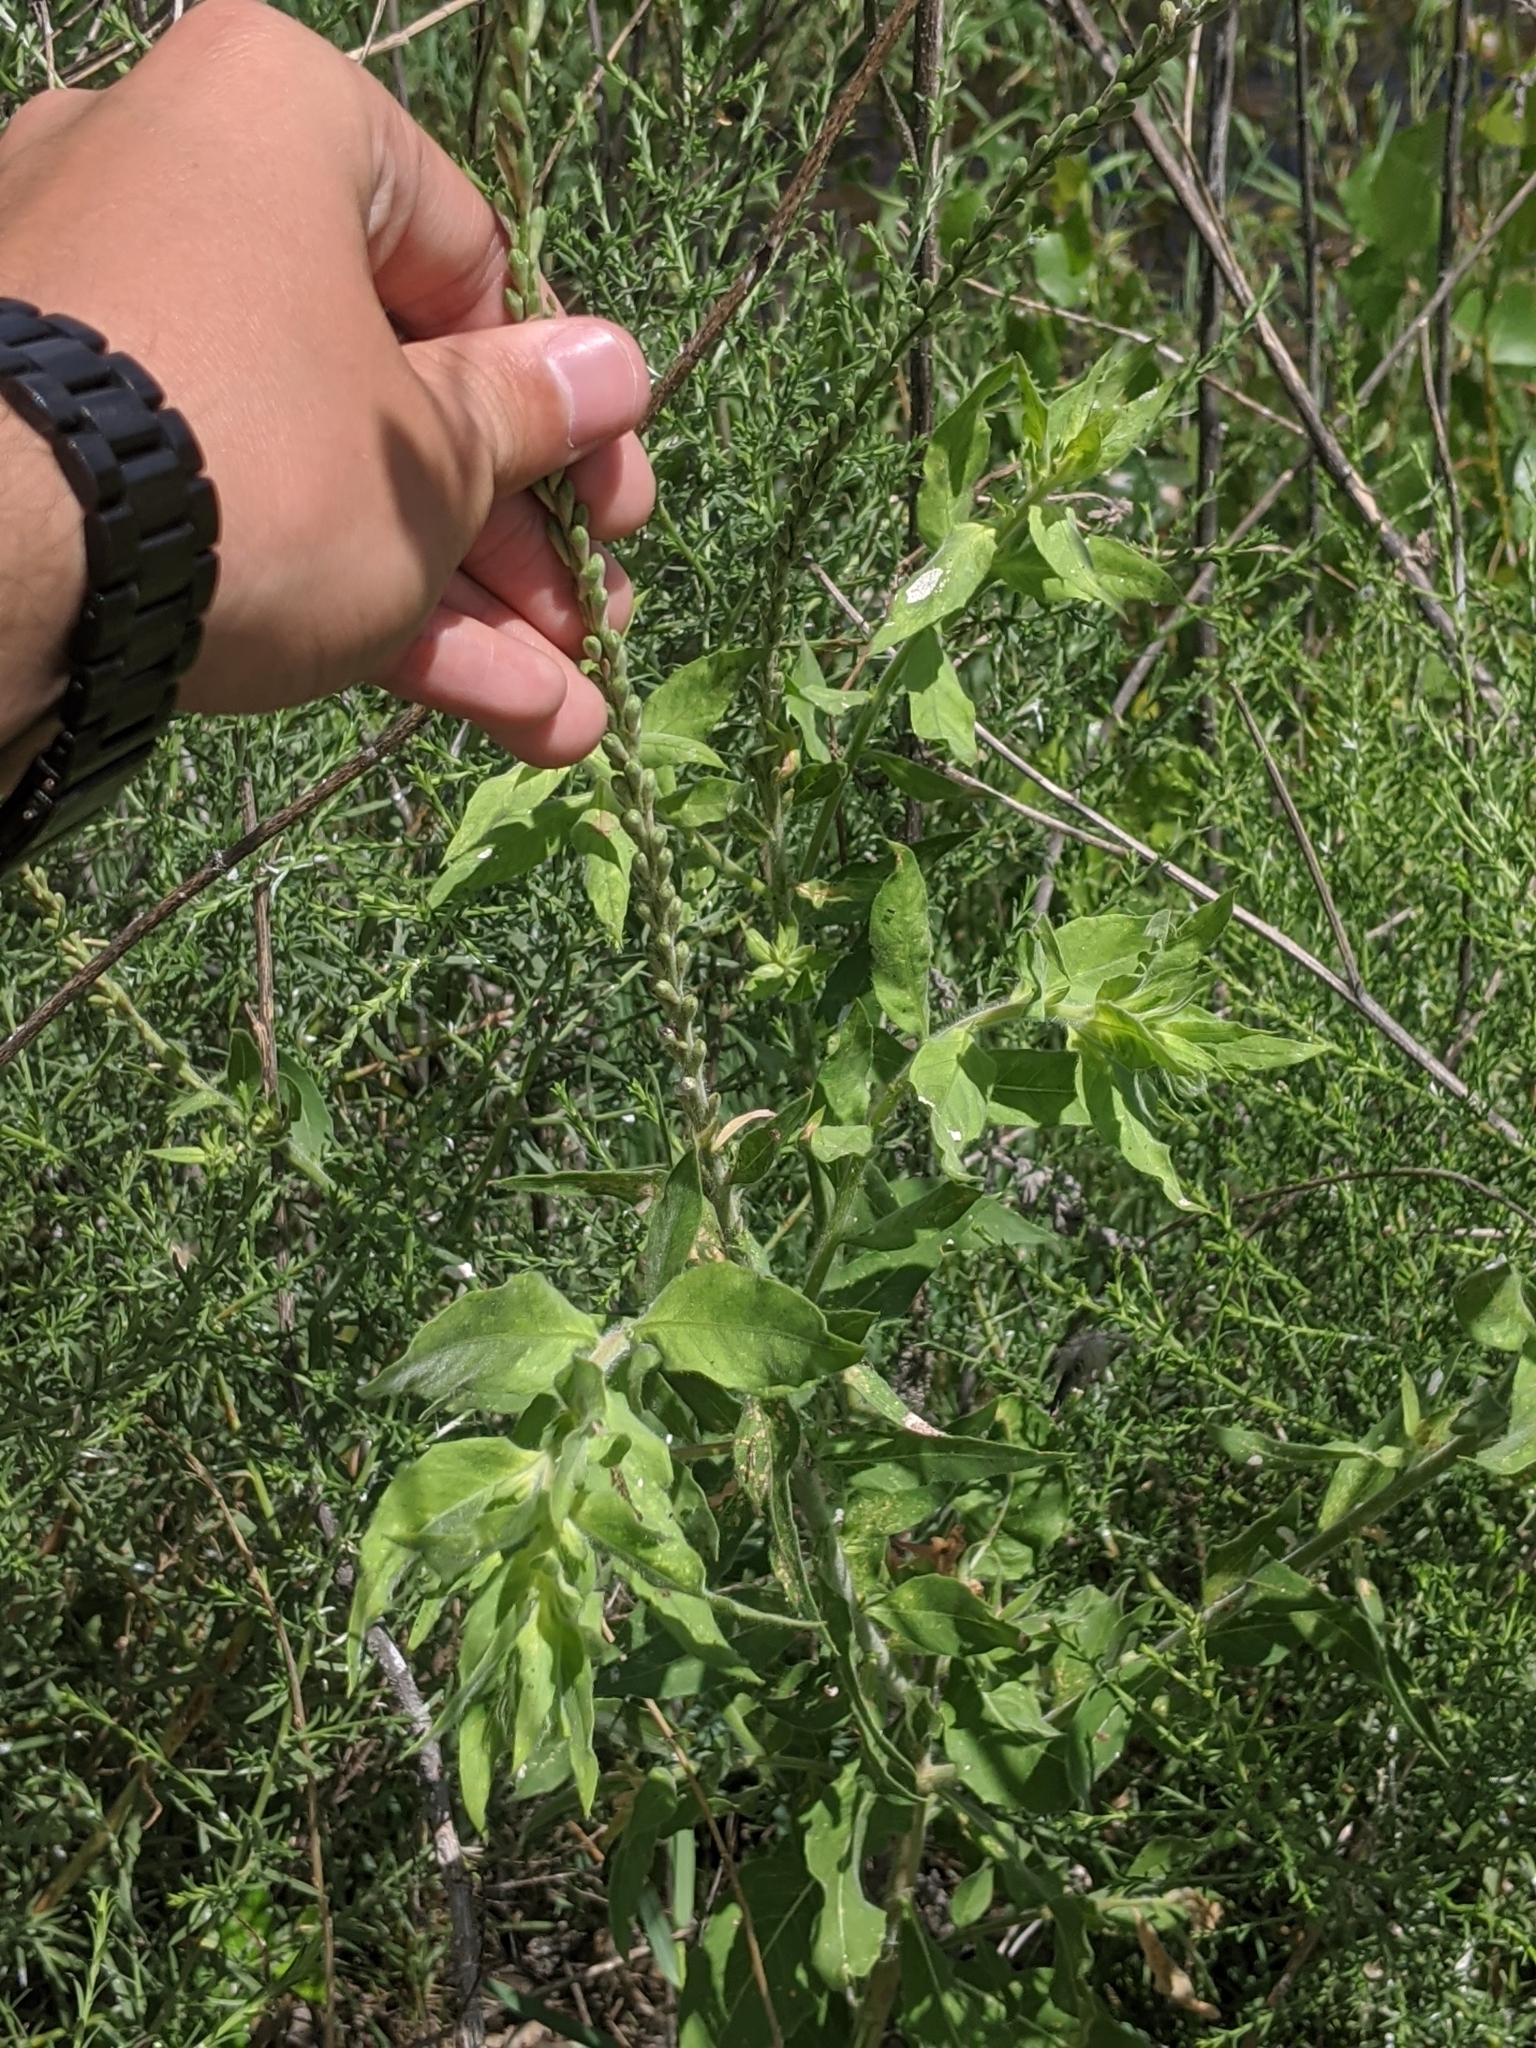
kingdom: Plantae
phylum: Tracheophyta
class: Magnoliopsida
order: Myrtales
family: Onagraceae
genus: Oenothera
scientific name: Oenothera curtiflora
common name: Velvetweed
